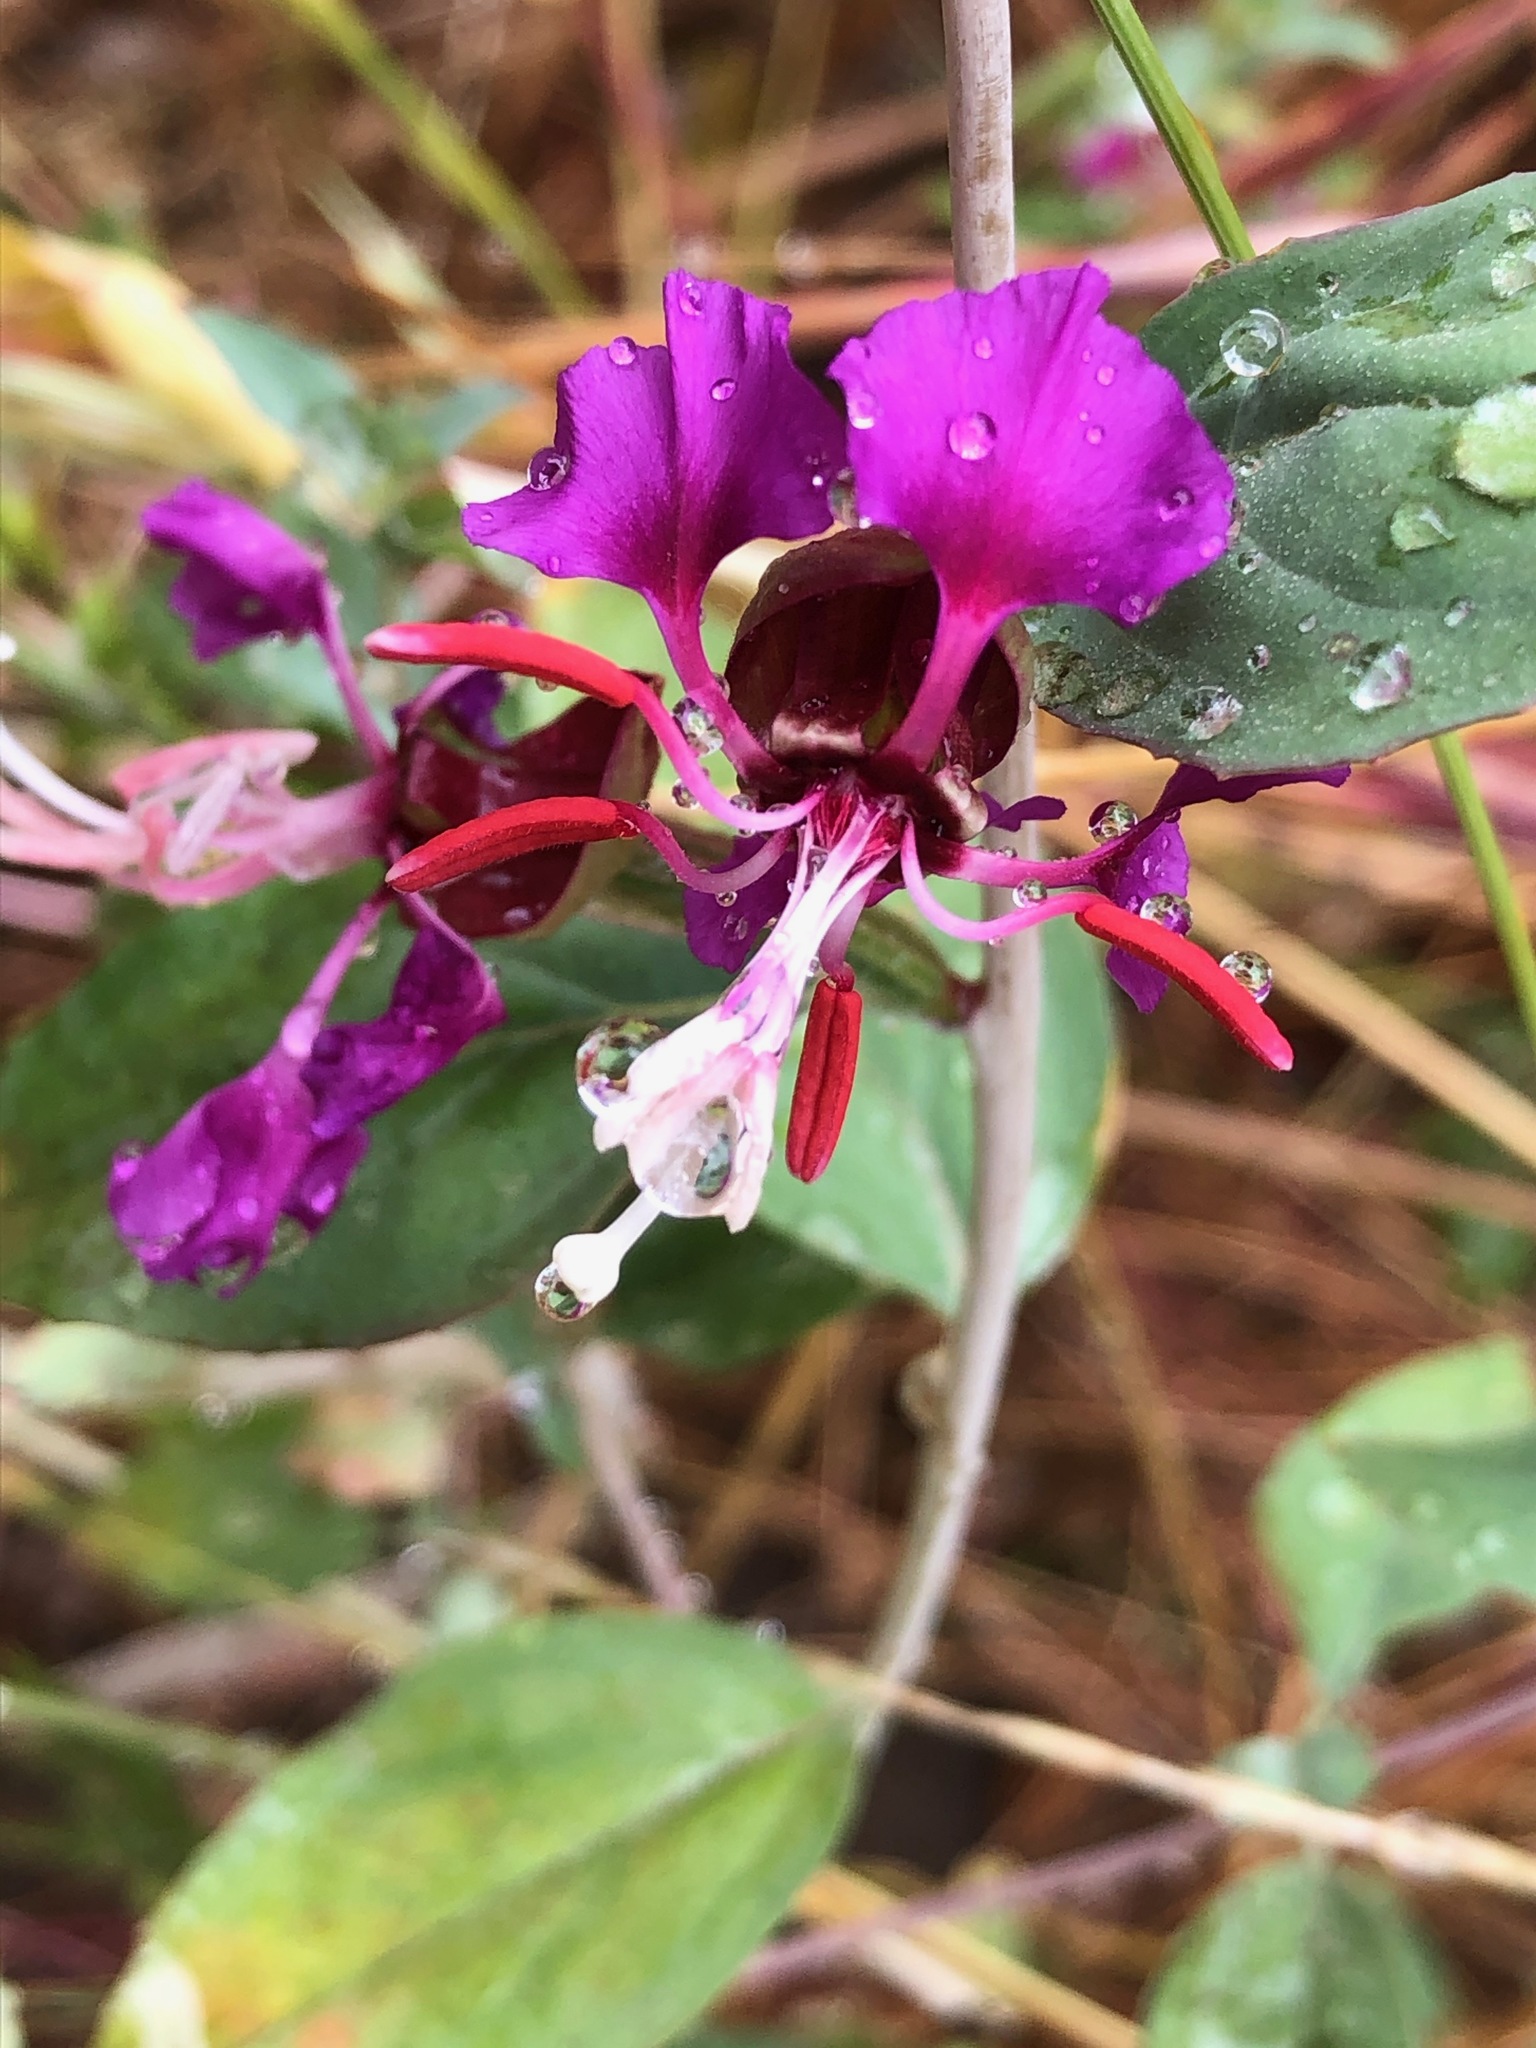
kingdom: Plantae
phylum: Tracheophyta
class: Magnoliopsida
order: Myrtales
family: Onagraceae
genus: Clarkia
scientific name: Clarkia unguiculata
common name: Clarkia
